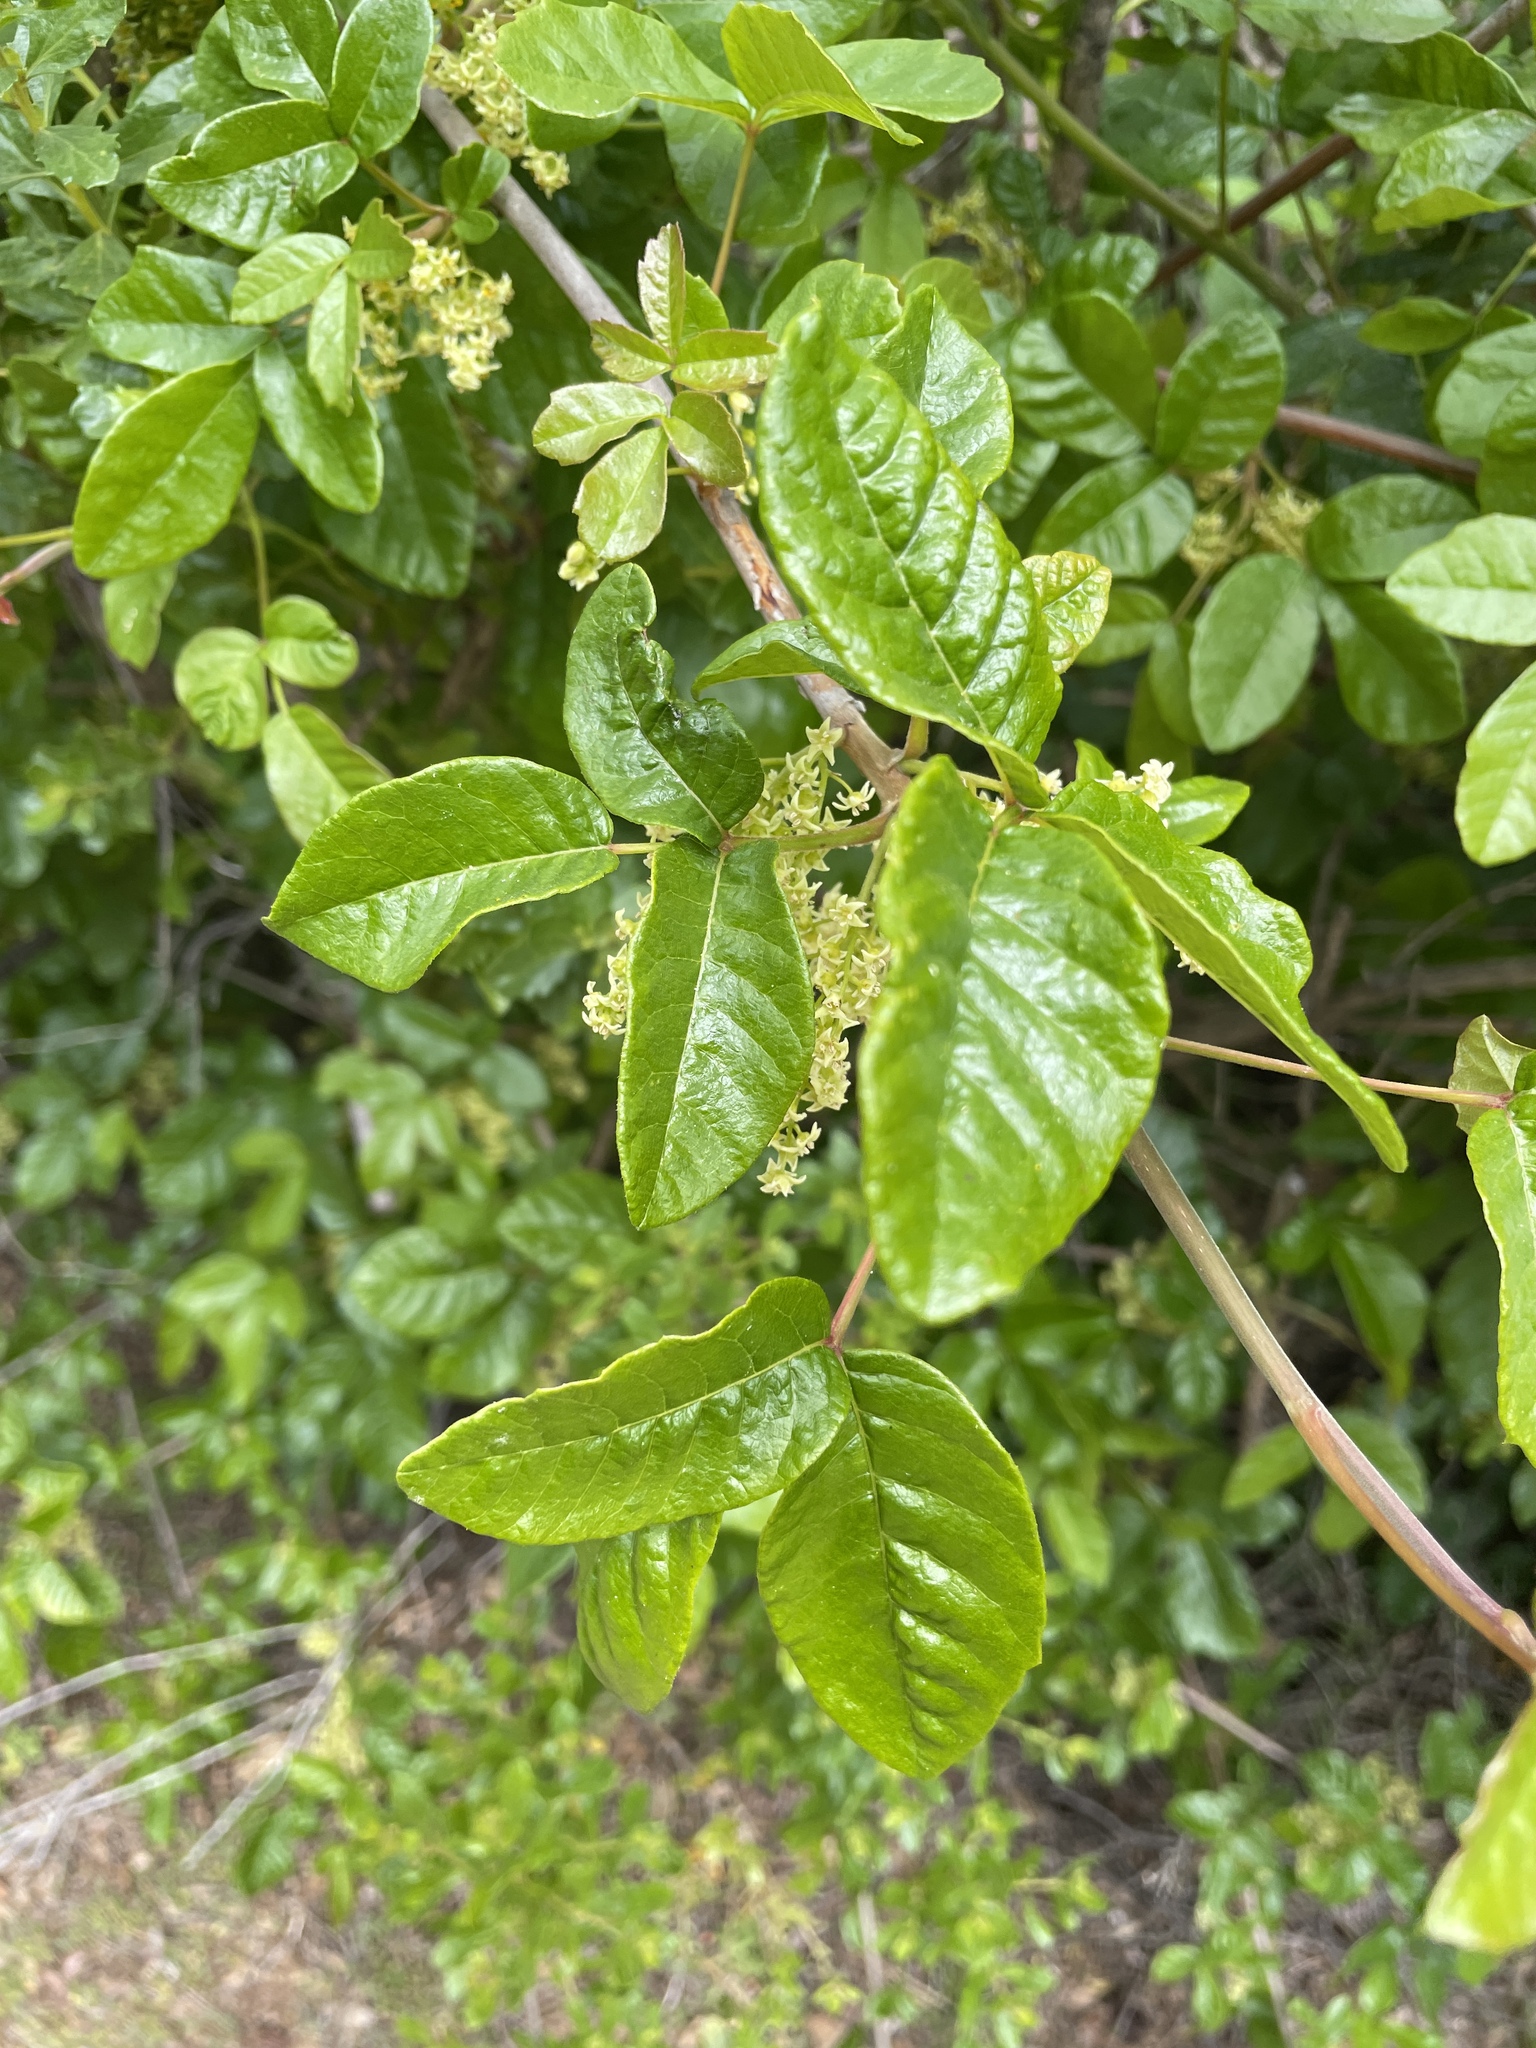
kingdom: Plantae
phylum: Tracheophyta
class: Magnoliopsida
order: Sapindales
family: Anacardiaceae
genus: Toxicodendron
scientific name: Toxicodendron diversilobum
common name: Pacific poison-oak
